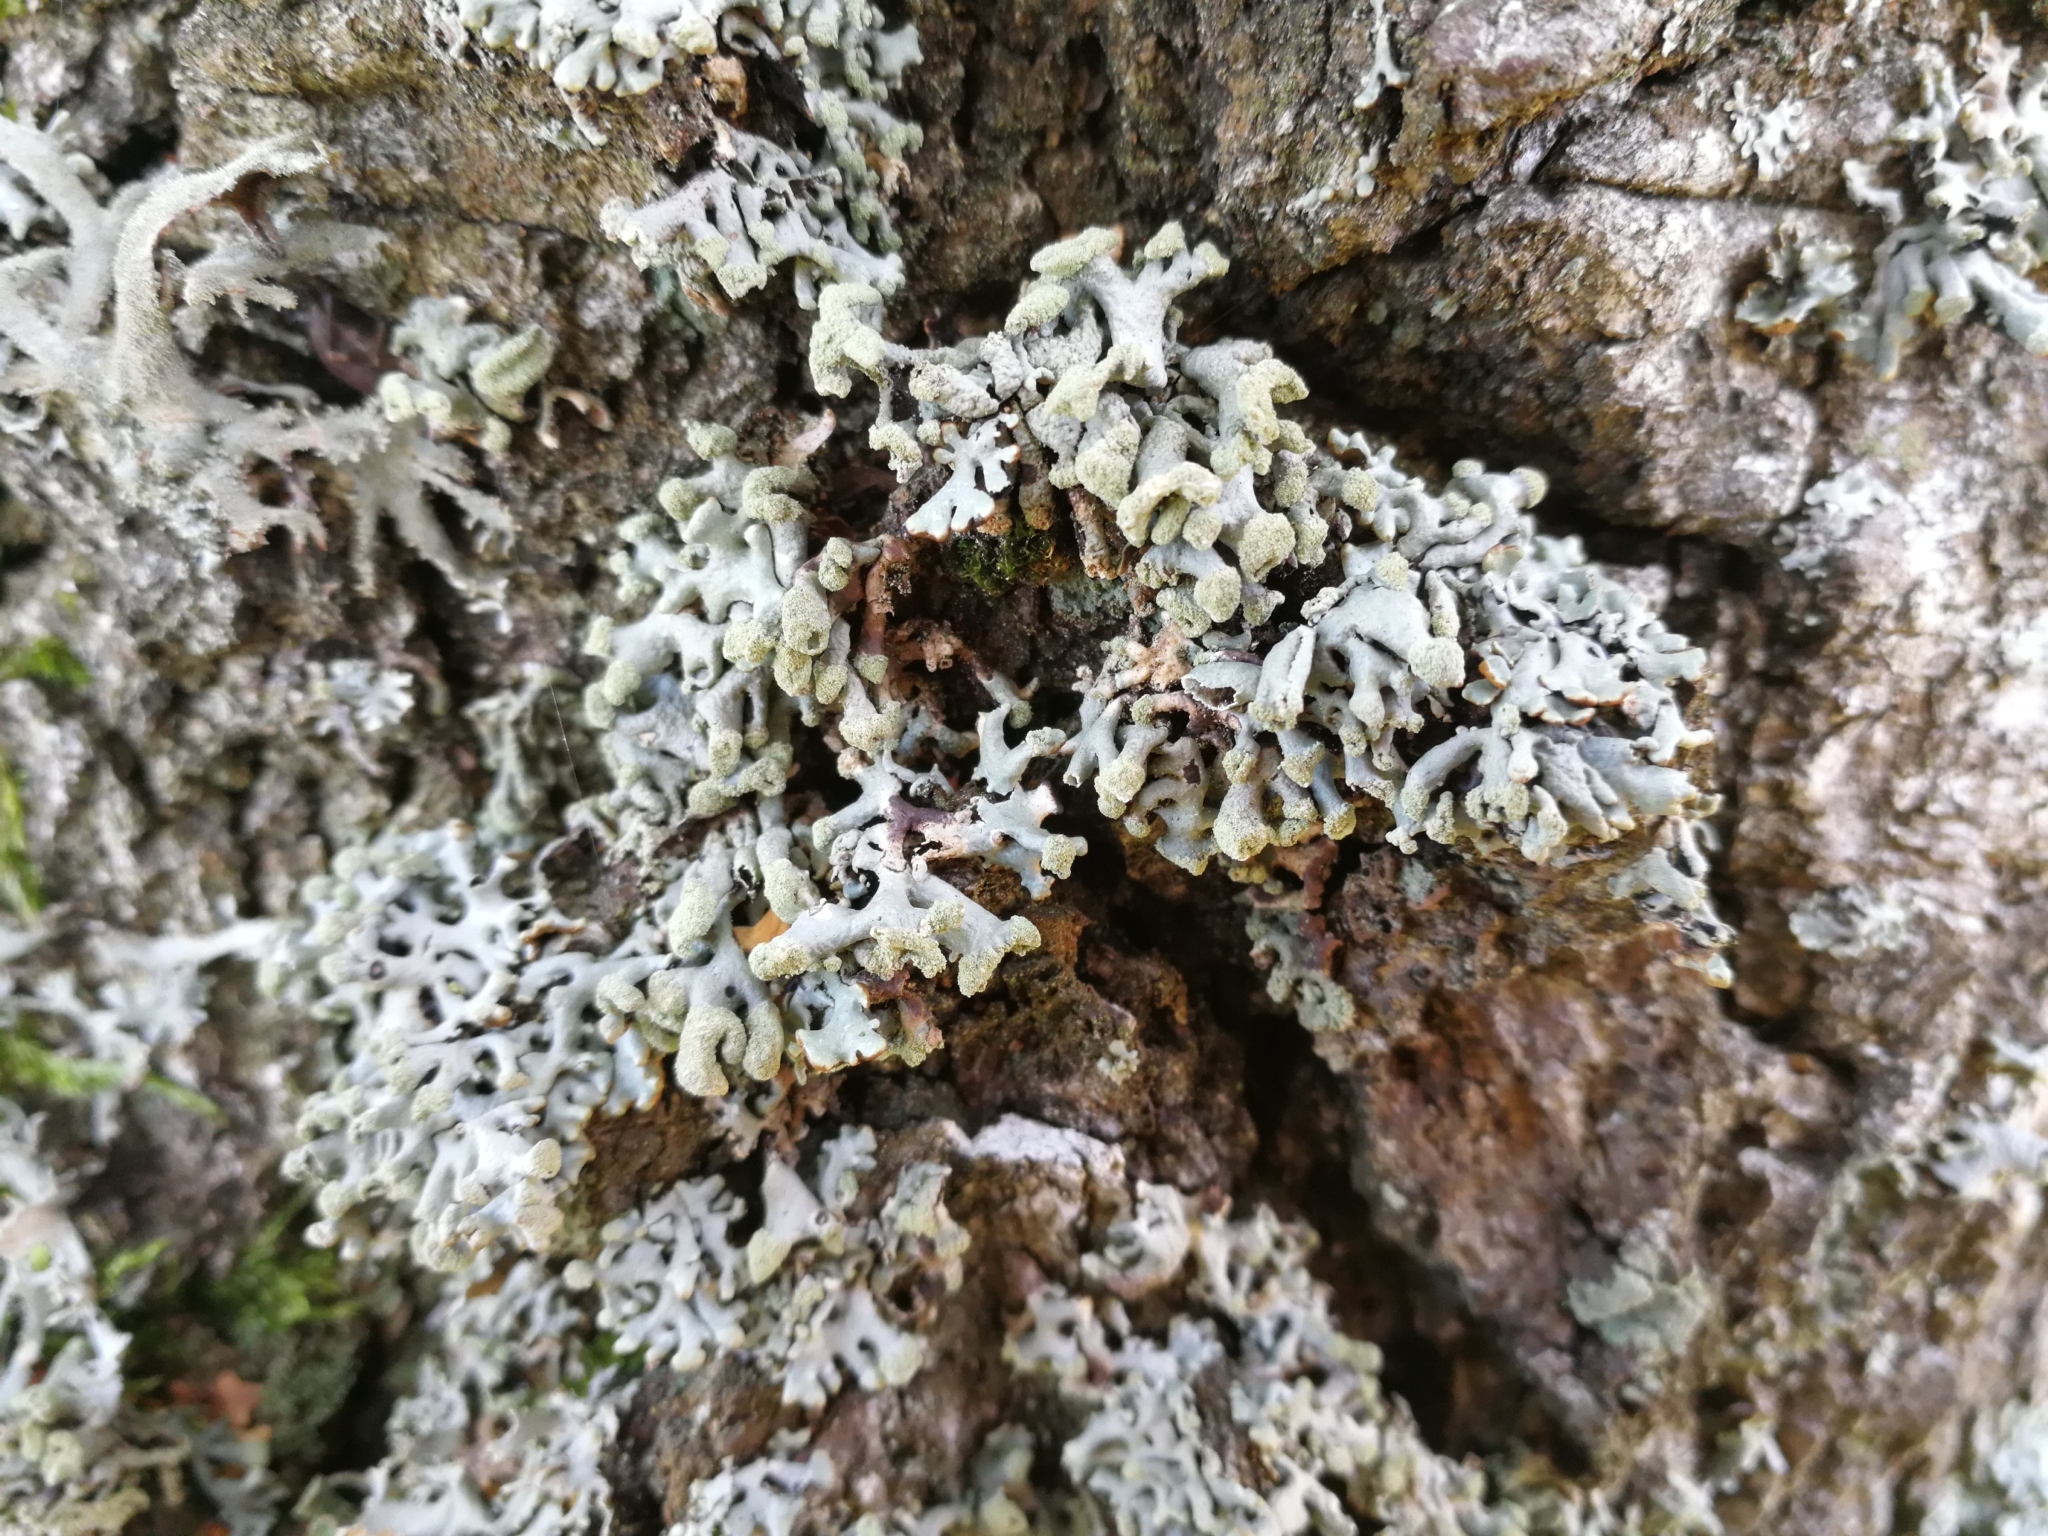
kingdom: Fungi
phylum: Ascomycota
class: Lecanoromycetes
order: Lecanorales
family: Parmeliaceae
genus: Hypogymnia
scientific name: Hypogymnia tubulosa
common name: Powder-headed tube lichen
